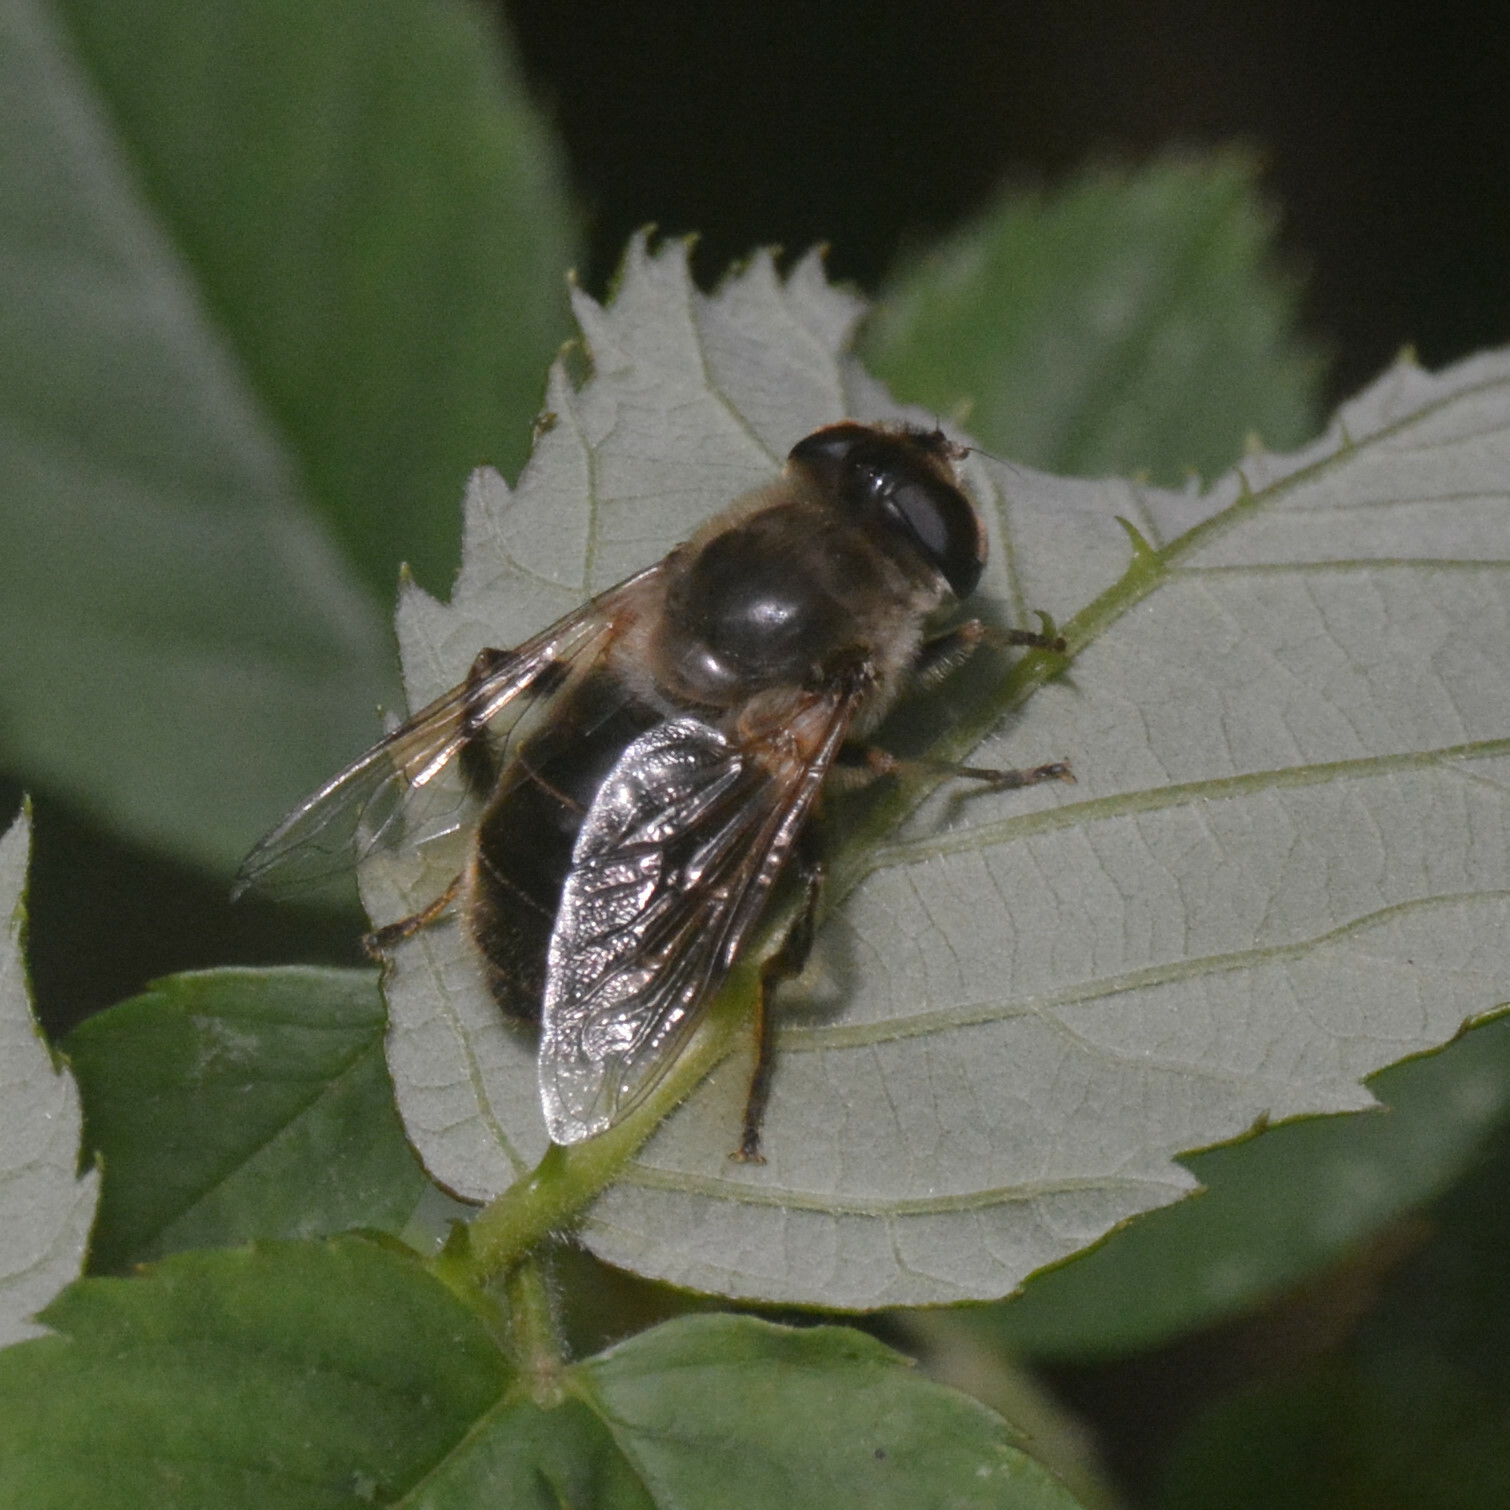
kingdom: Animalia
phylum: Arthropoda
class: Insecta
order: Diptera
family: Syrphidae
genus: Eristalis
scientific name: Eristalis tenax
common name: Drone fly
